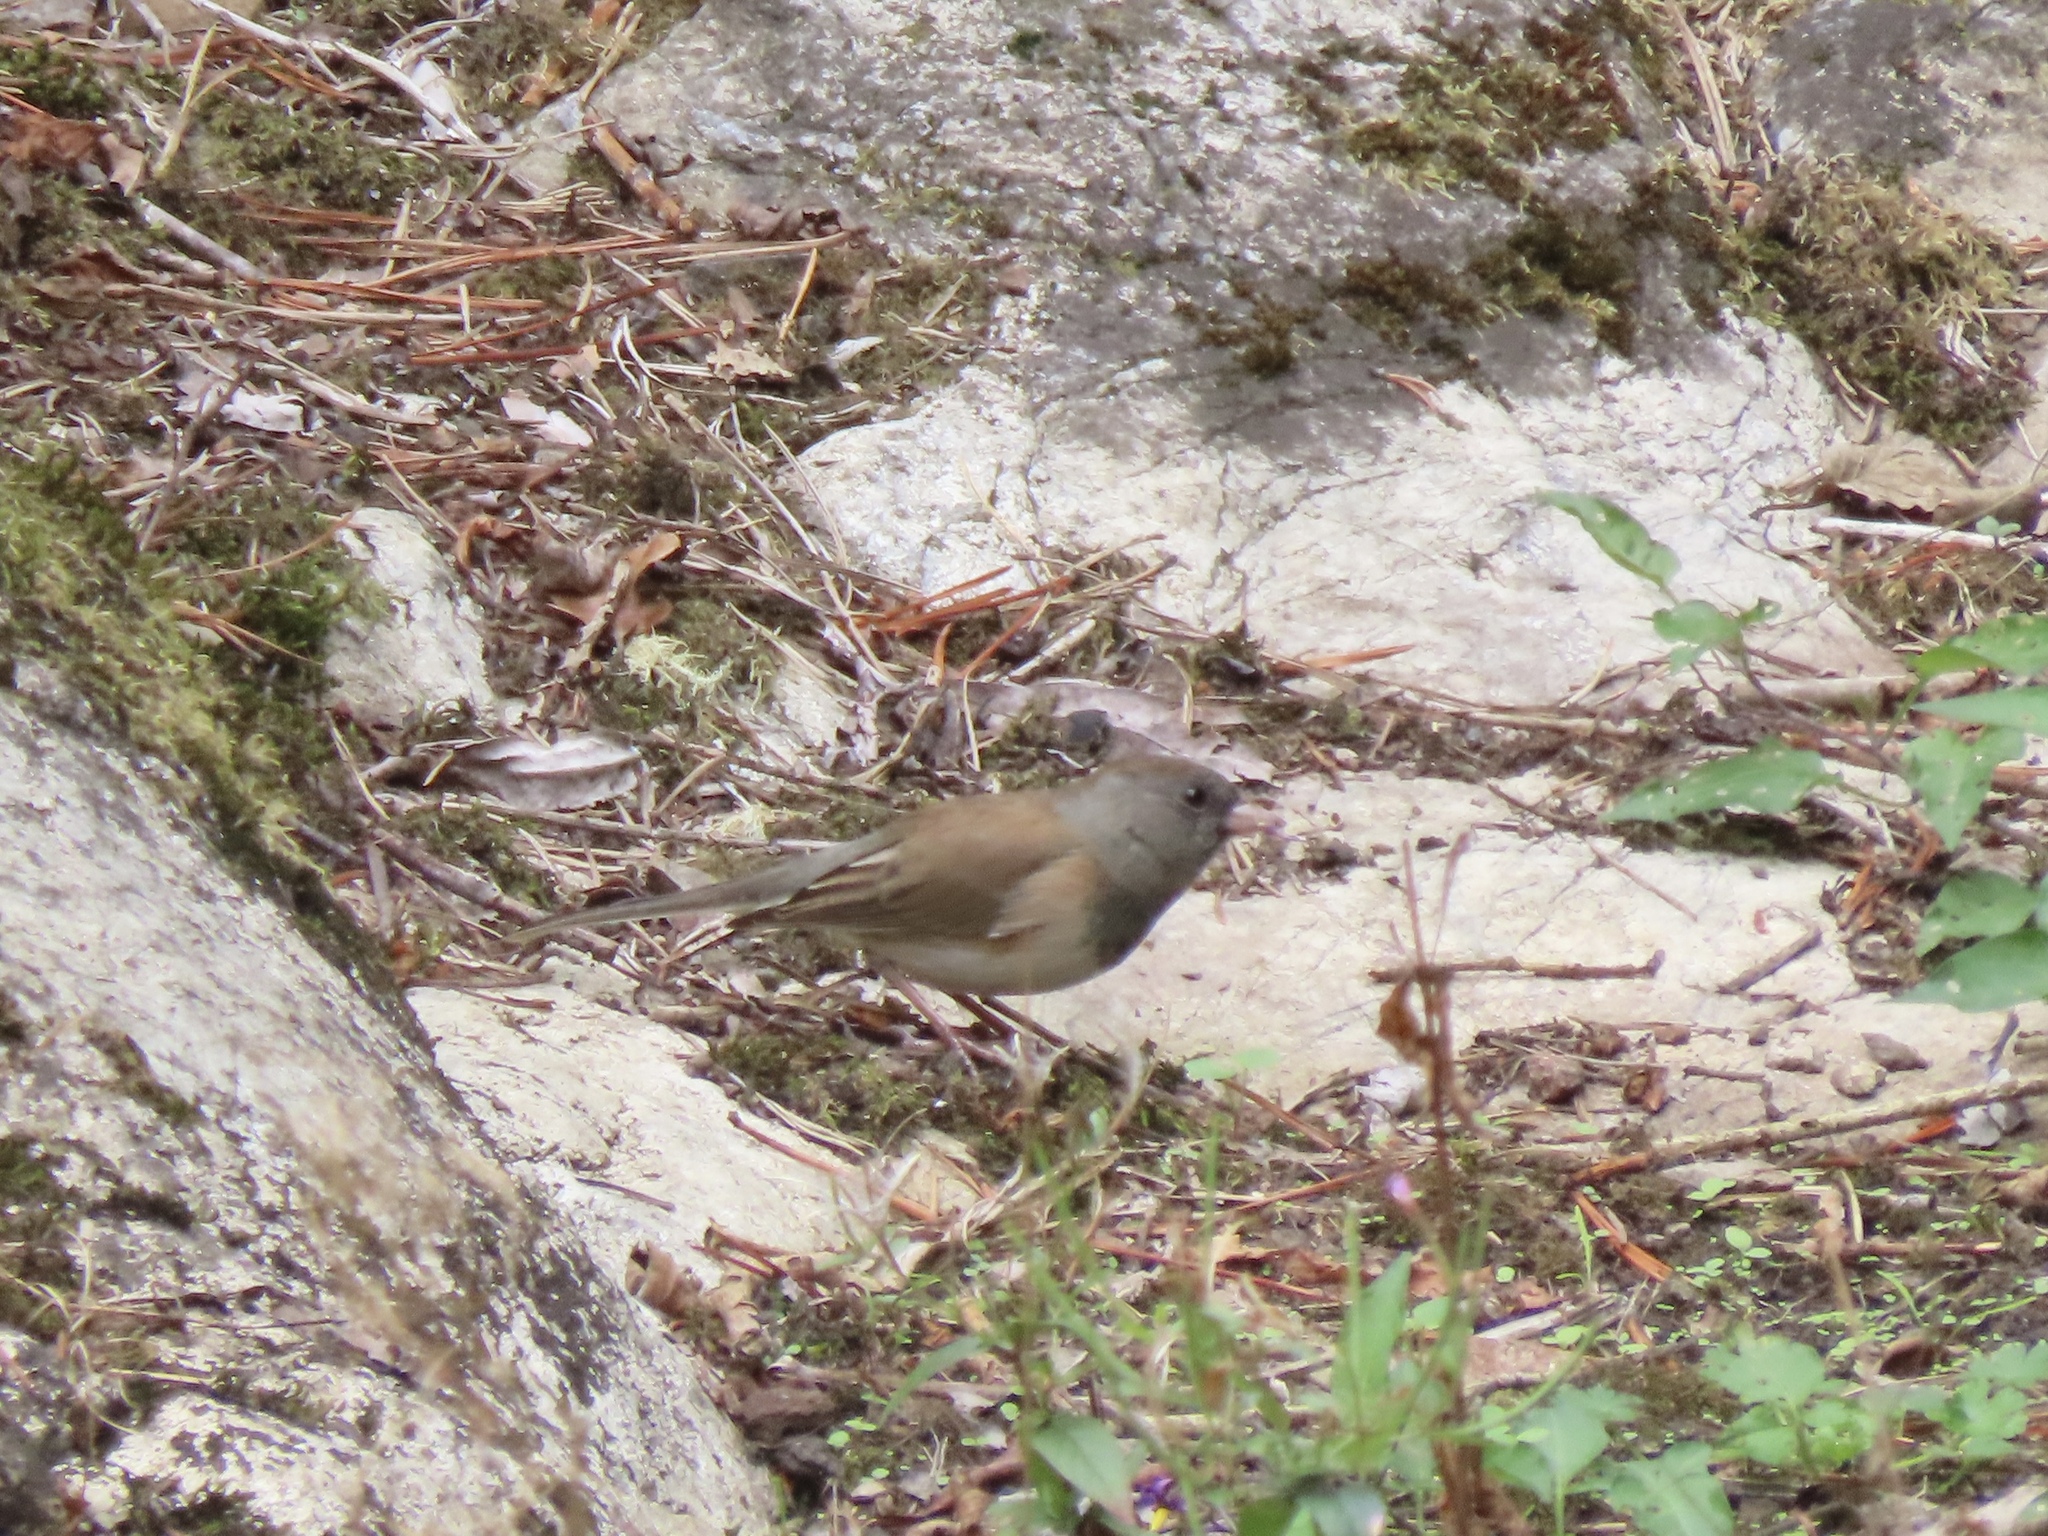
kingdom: Animalia
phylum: Chordata
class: Aves
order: Passeriformes
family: Passerellidae
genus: Junco
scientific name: Junco hyemalis
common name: Dark-eyed junco
